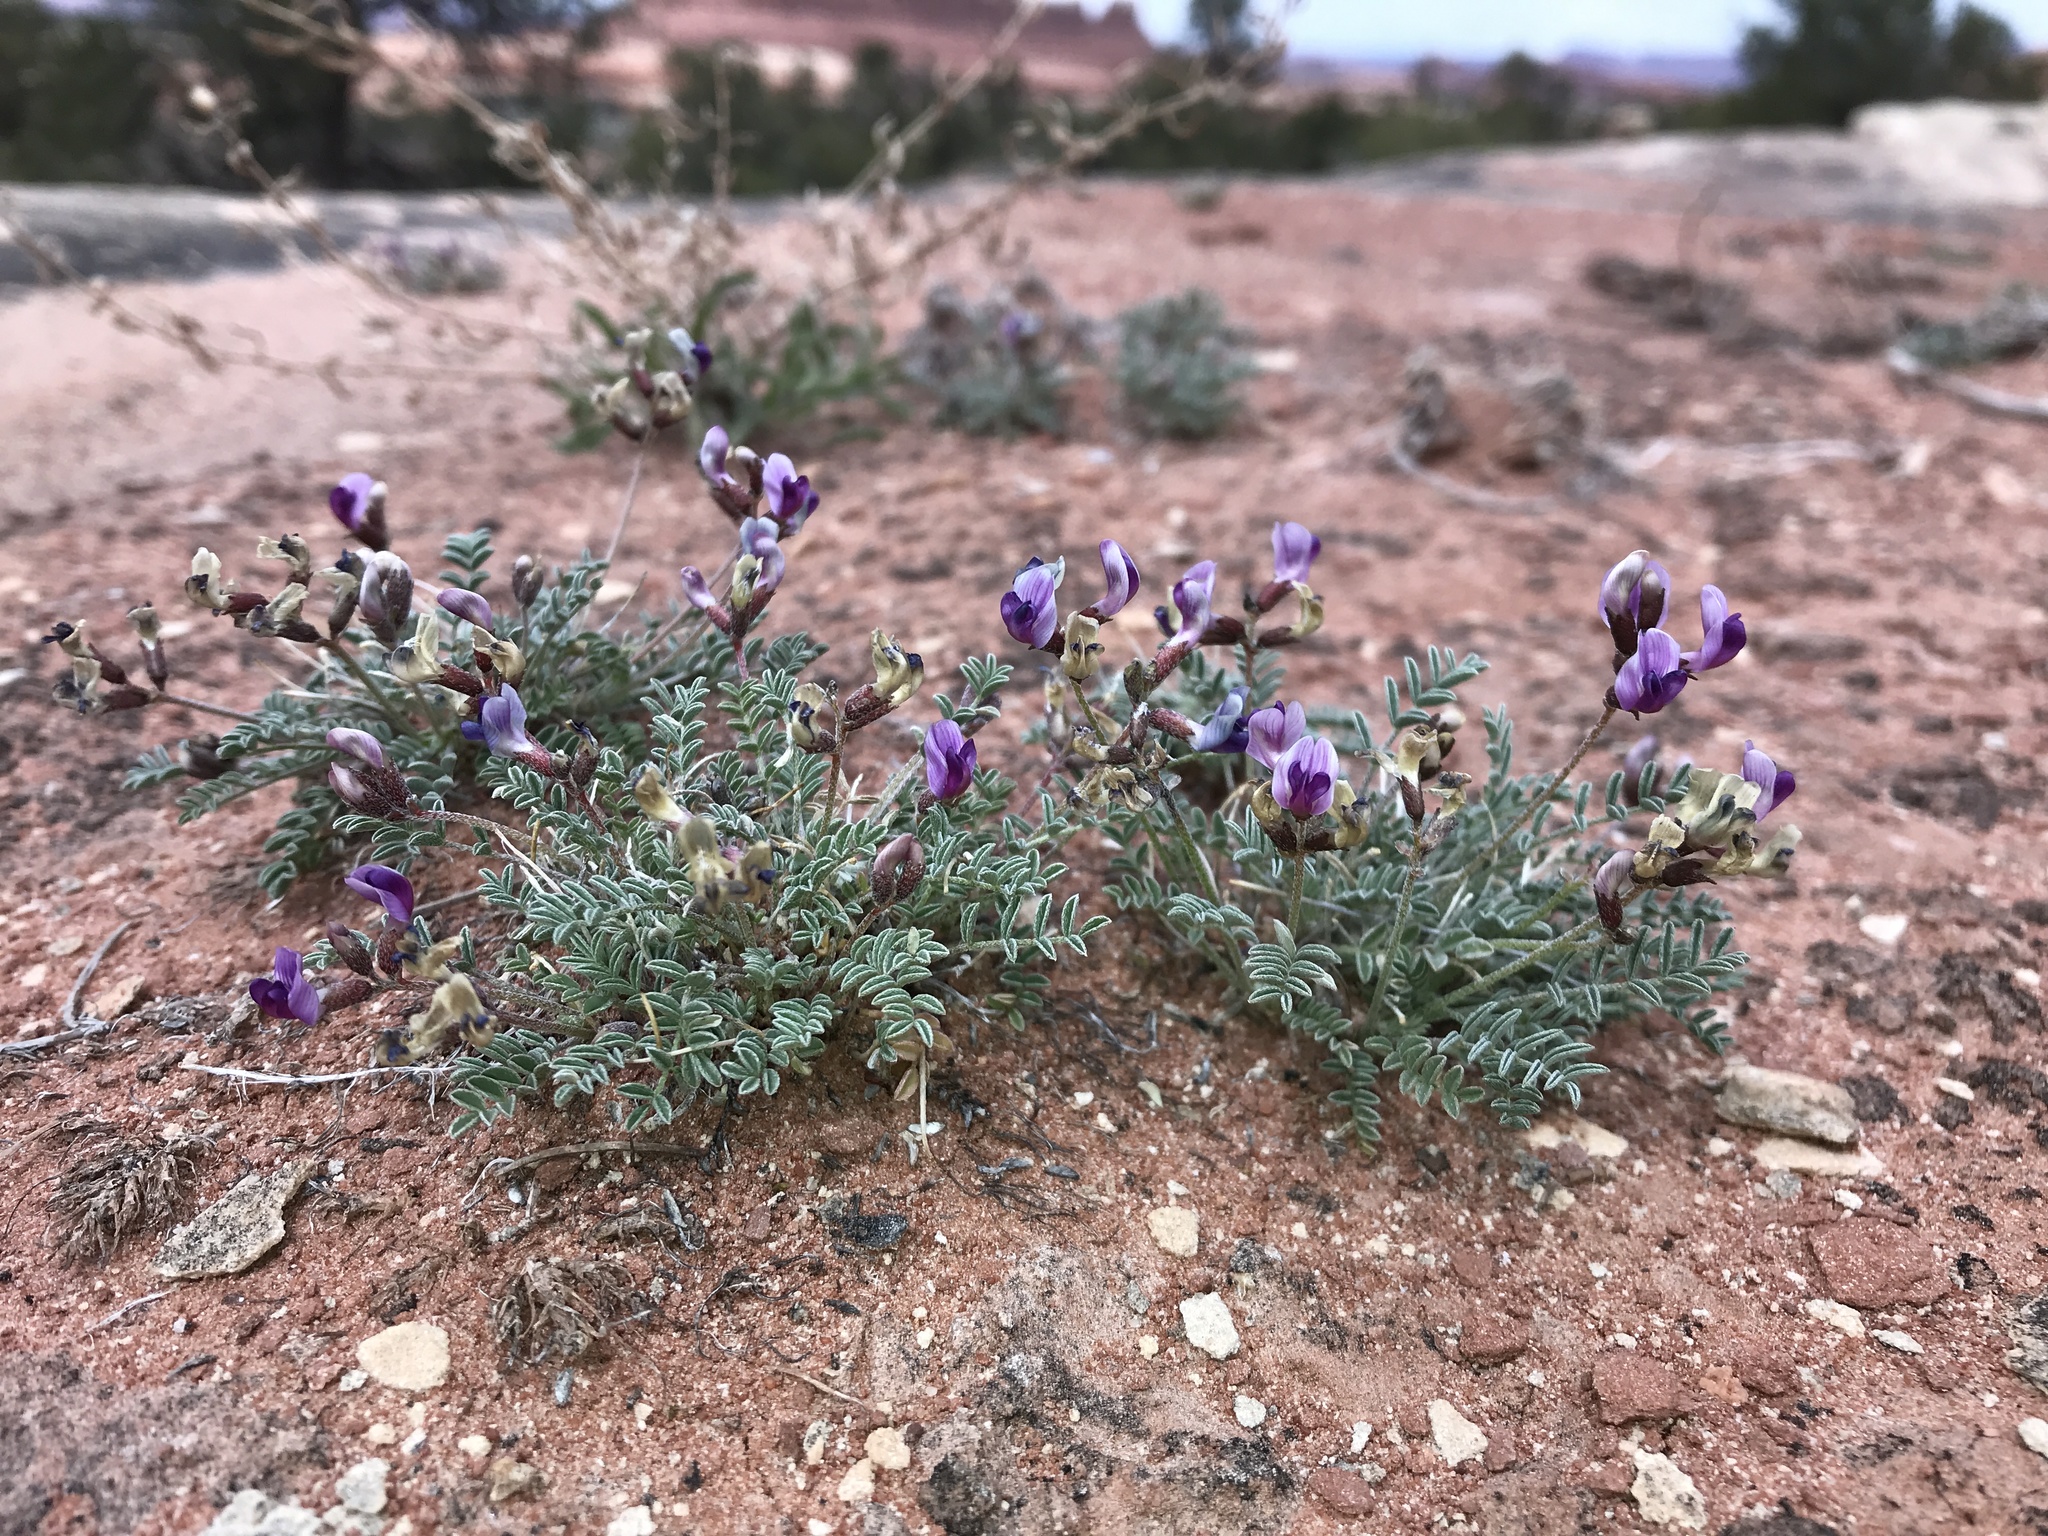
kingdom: Plantae
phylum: Tracheophyta
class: Magnoliopsida
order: Fabales
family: Fabaceae
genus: Astragalus
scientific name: Astragalus desperatus
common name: Rimrock milk-vetch
